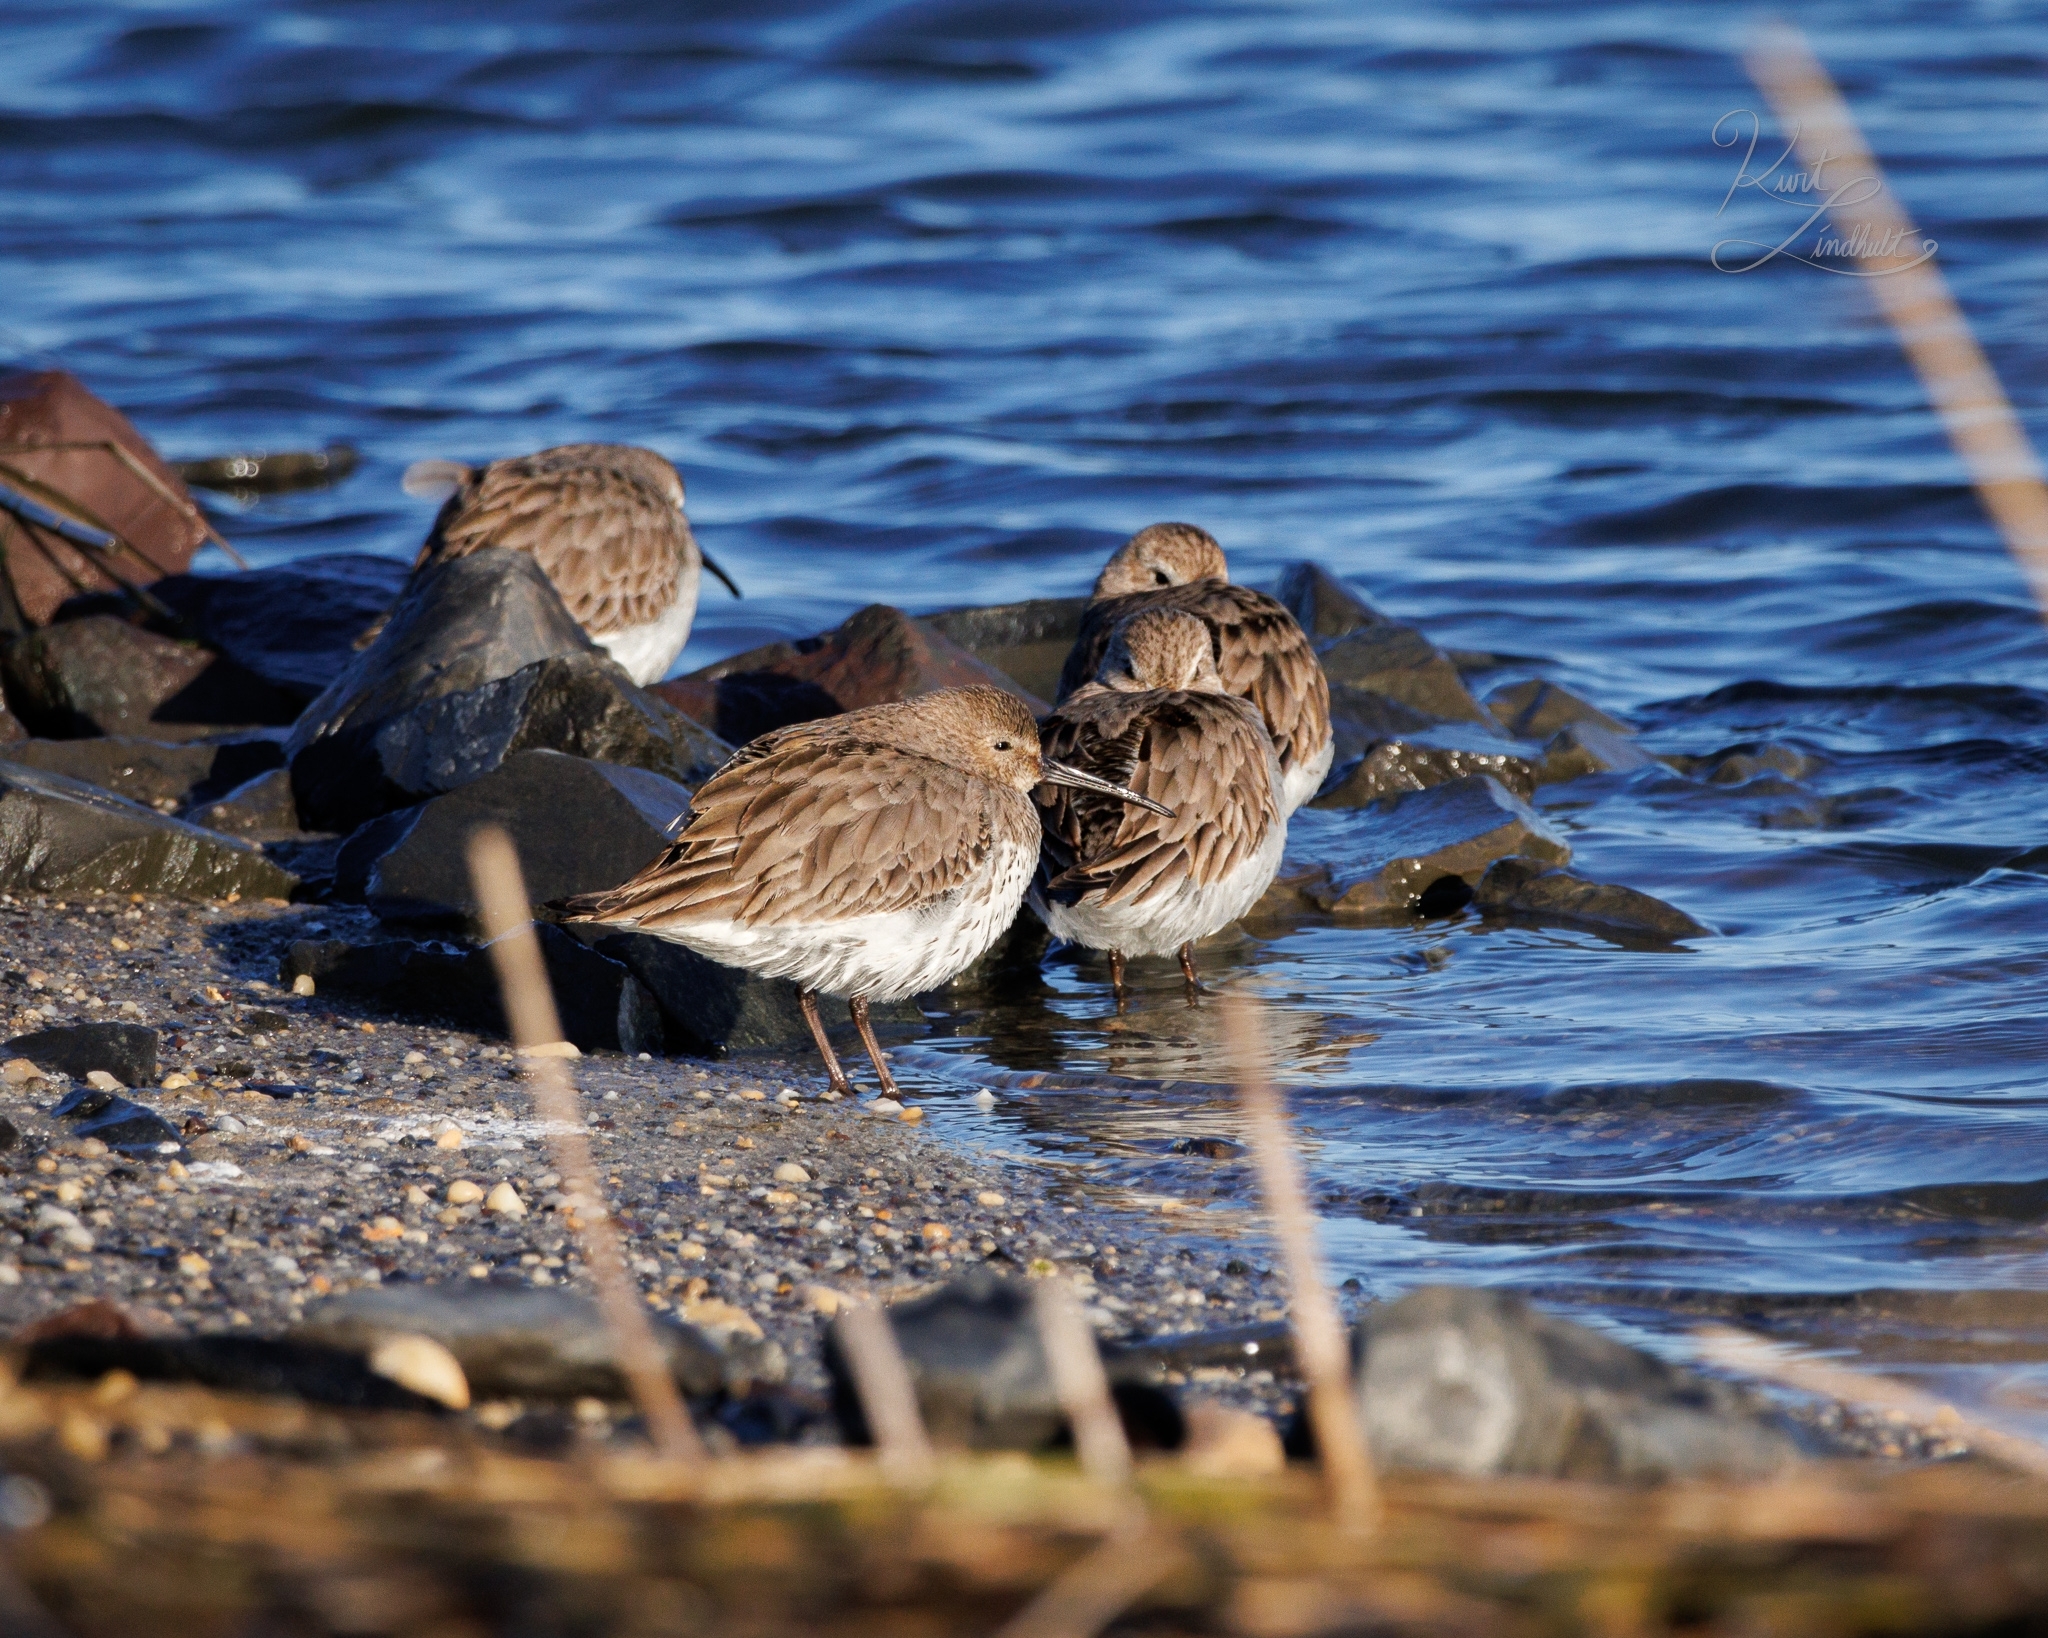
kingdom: Animalia
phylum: Chordata
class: Aves
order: Charadriiformes
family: Scolopacidae
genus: Calidris
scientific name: Calidris alpina
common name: Dunlin
